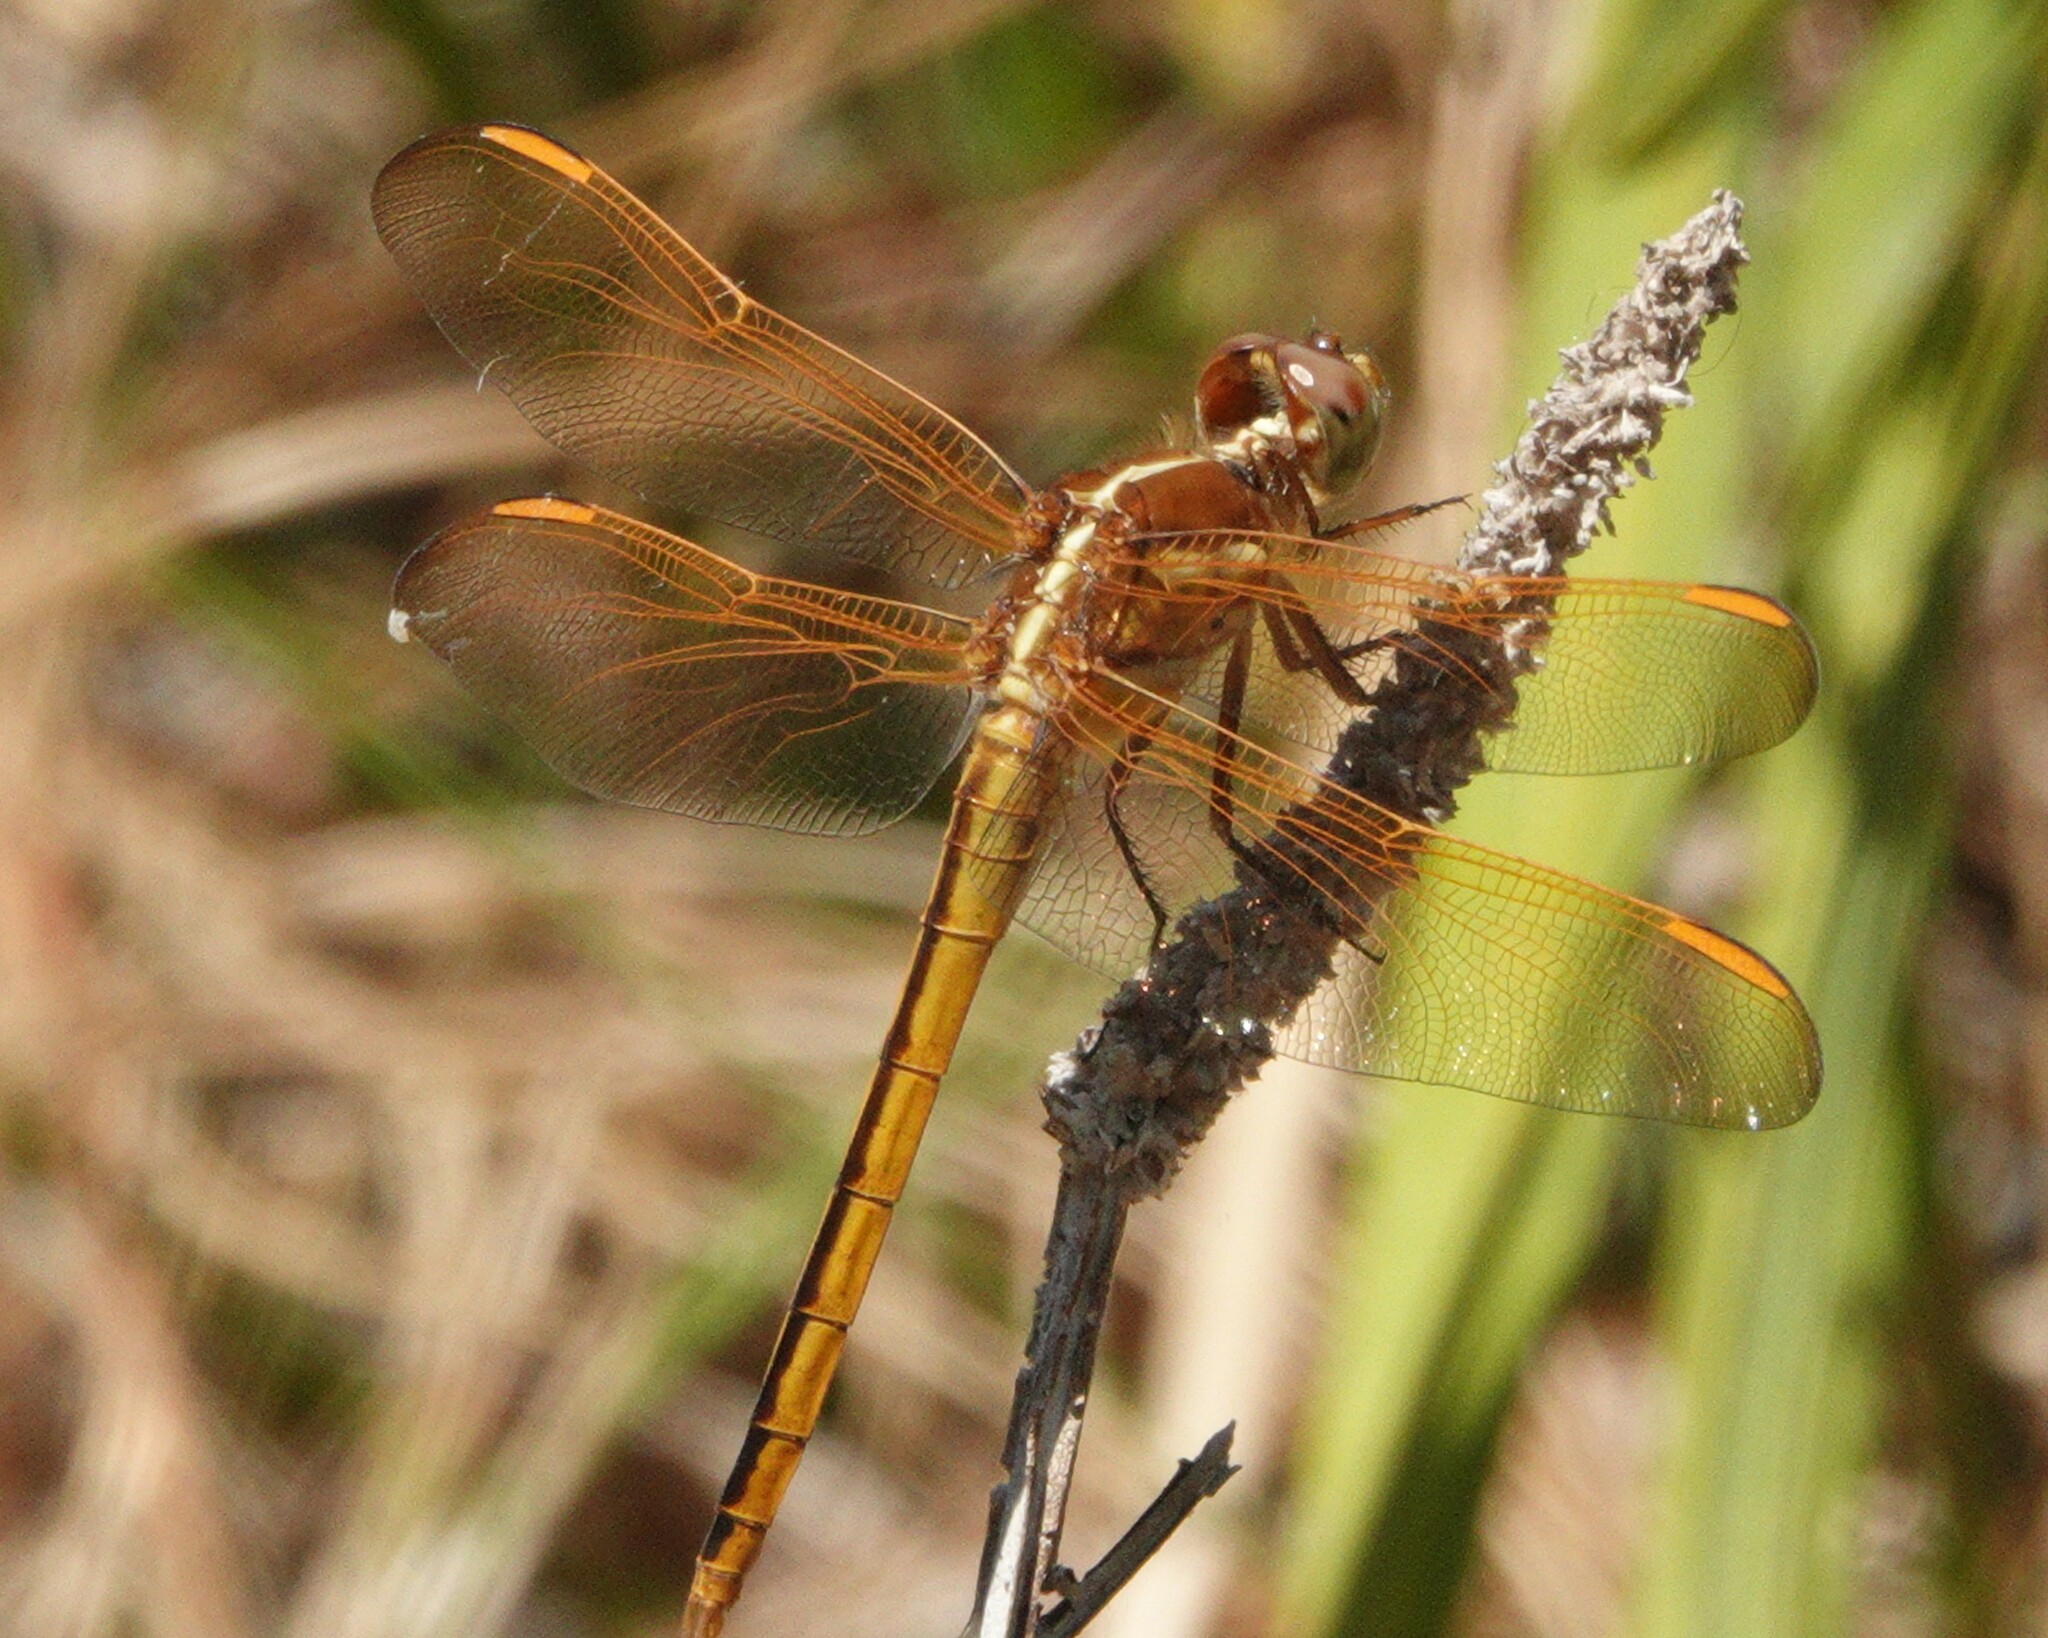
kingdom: Animalia
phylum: Arthropoda
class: Insecta
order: Odonata
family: Libellulidae
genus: Libellula
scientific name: Libellula auripennis
